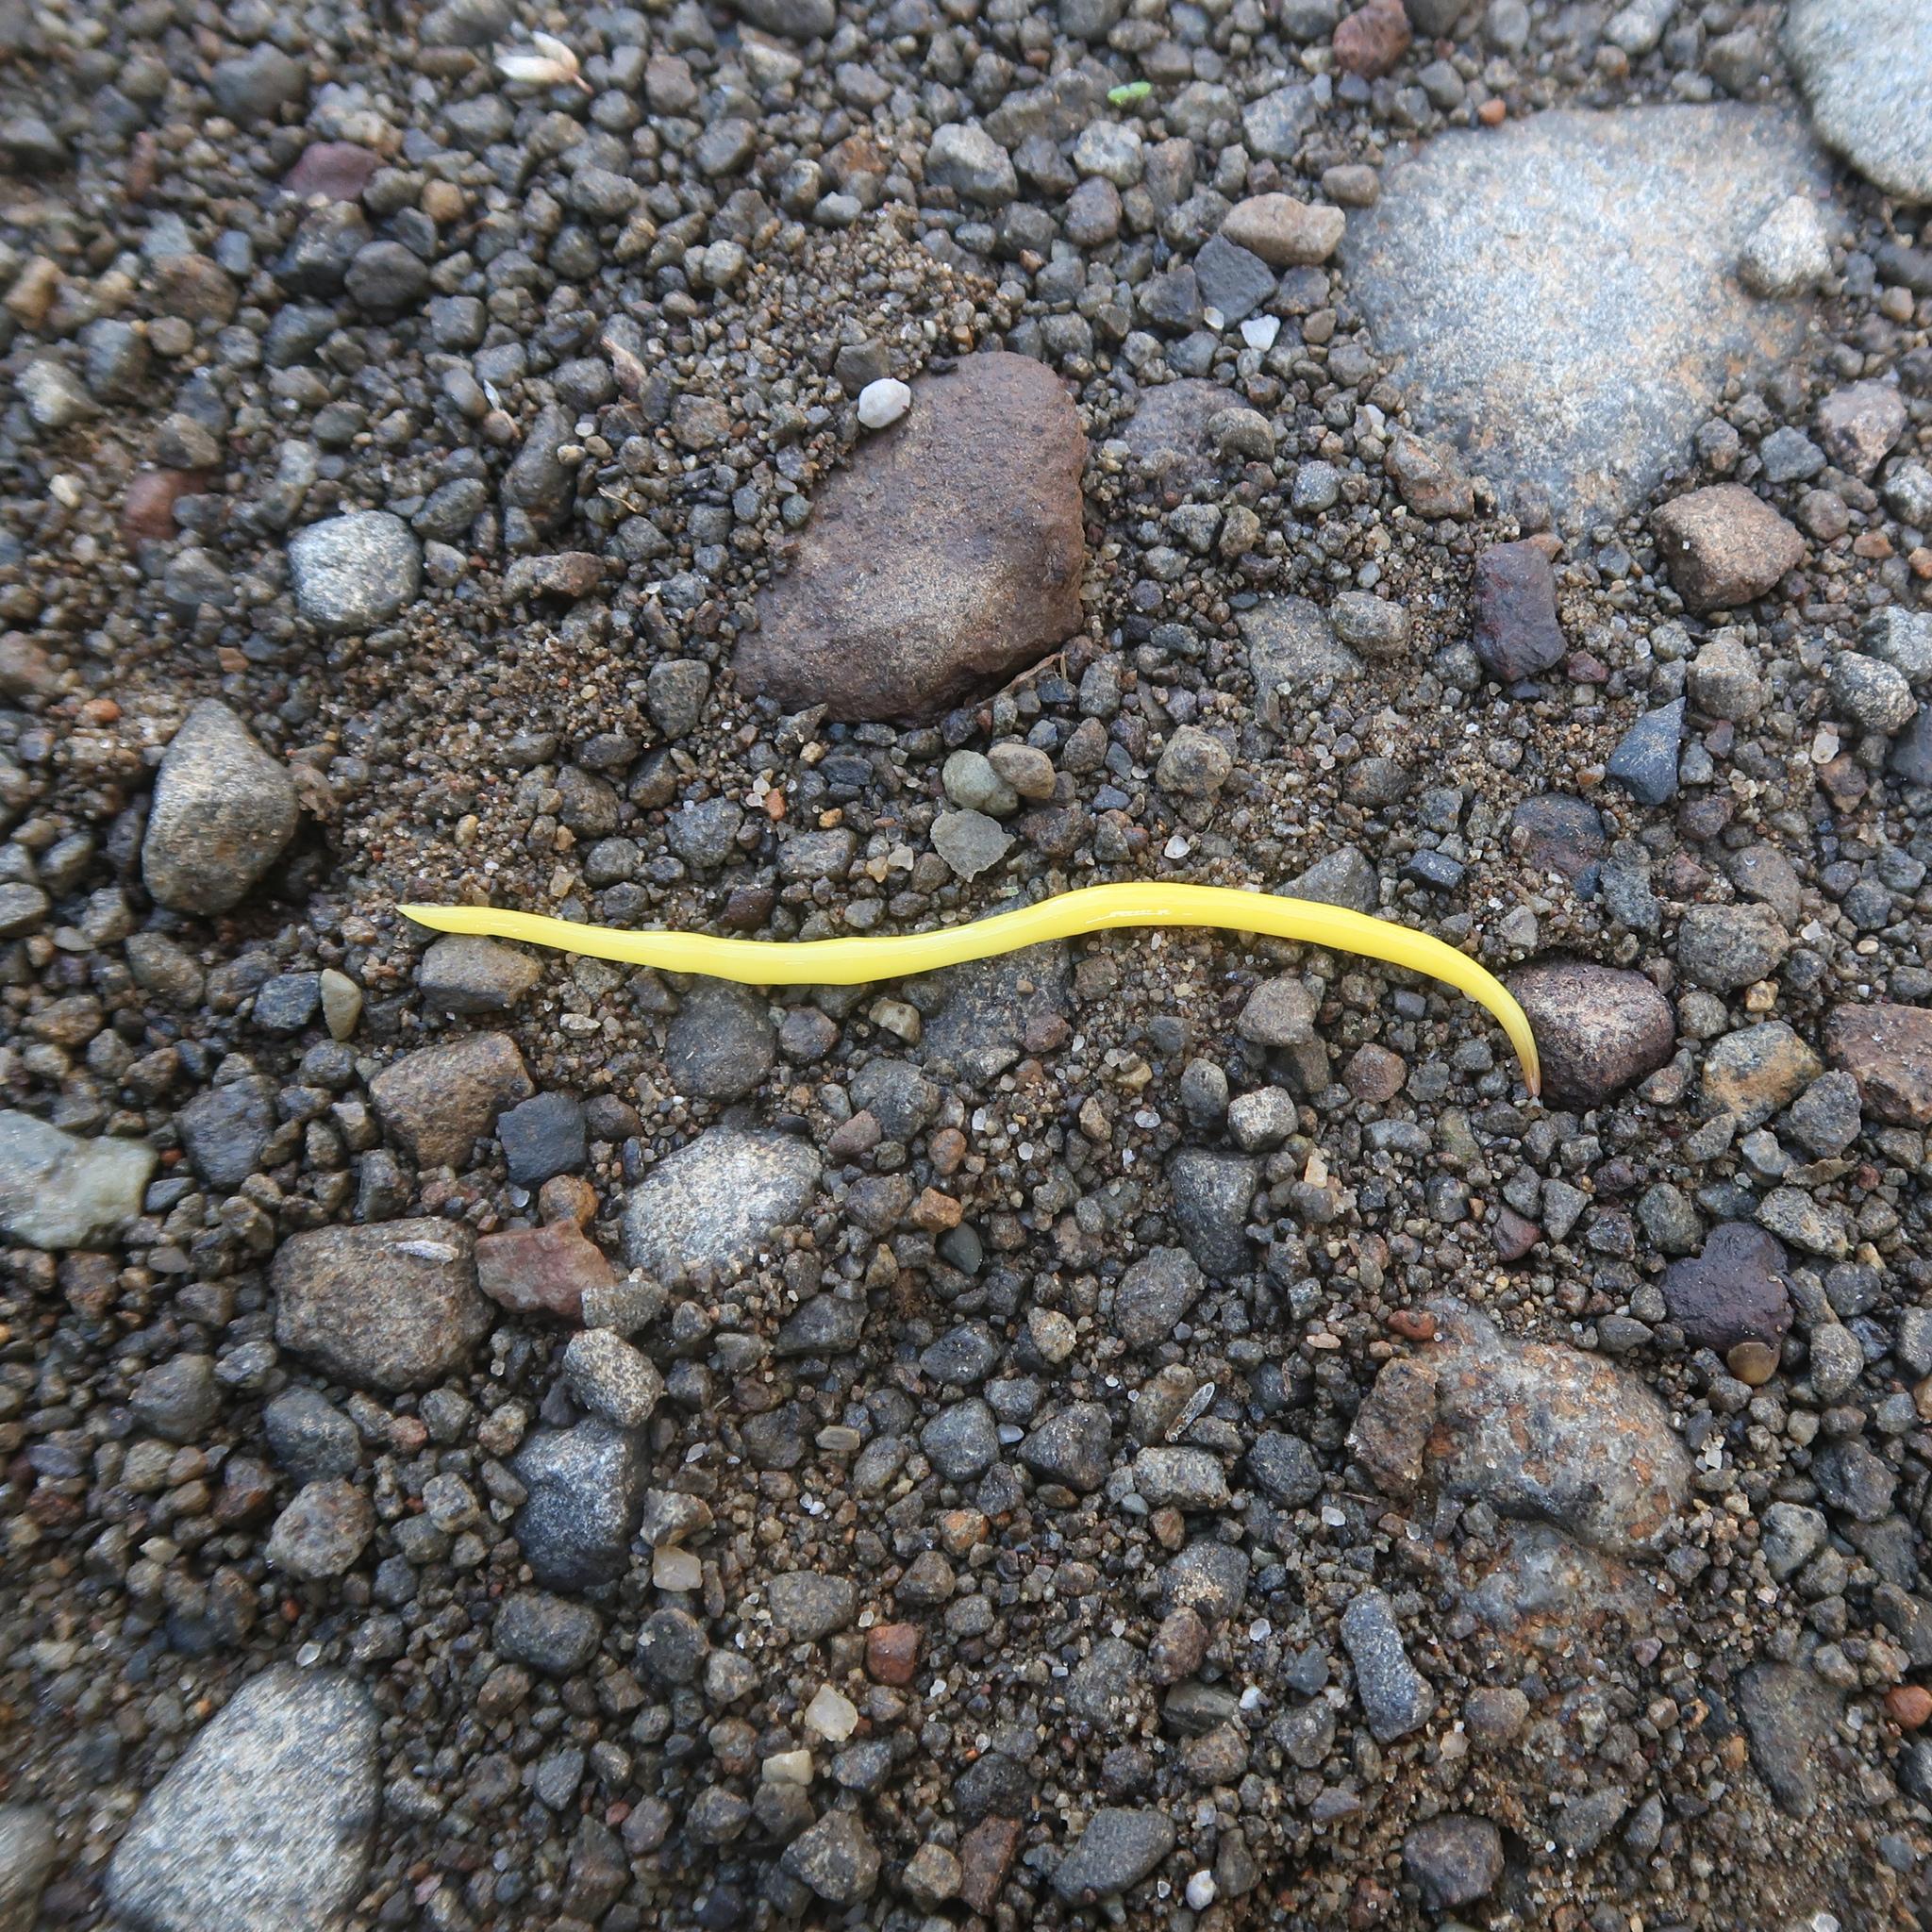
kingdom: Animalia
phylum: Platyhelminthes
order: Tricladida
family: Geoplanidae
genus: Fletchamia
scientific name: Fletchamia sugdeni
